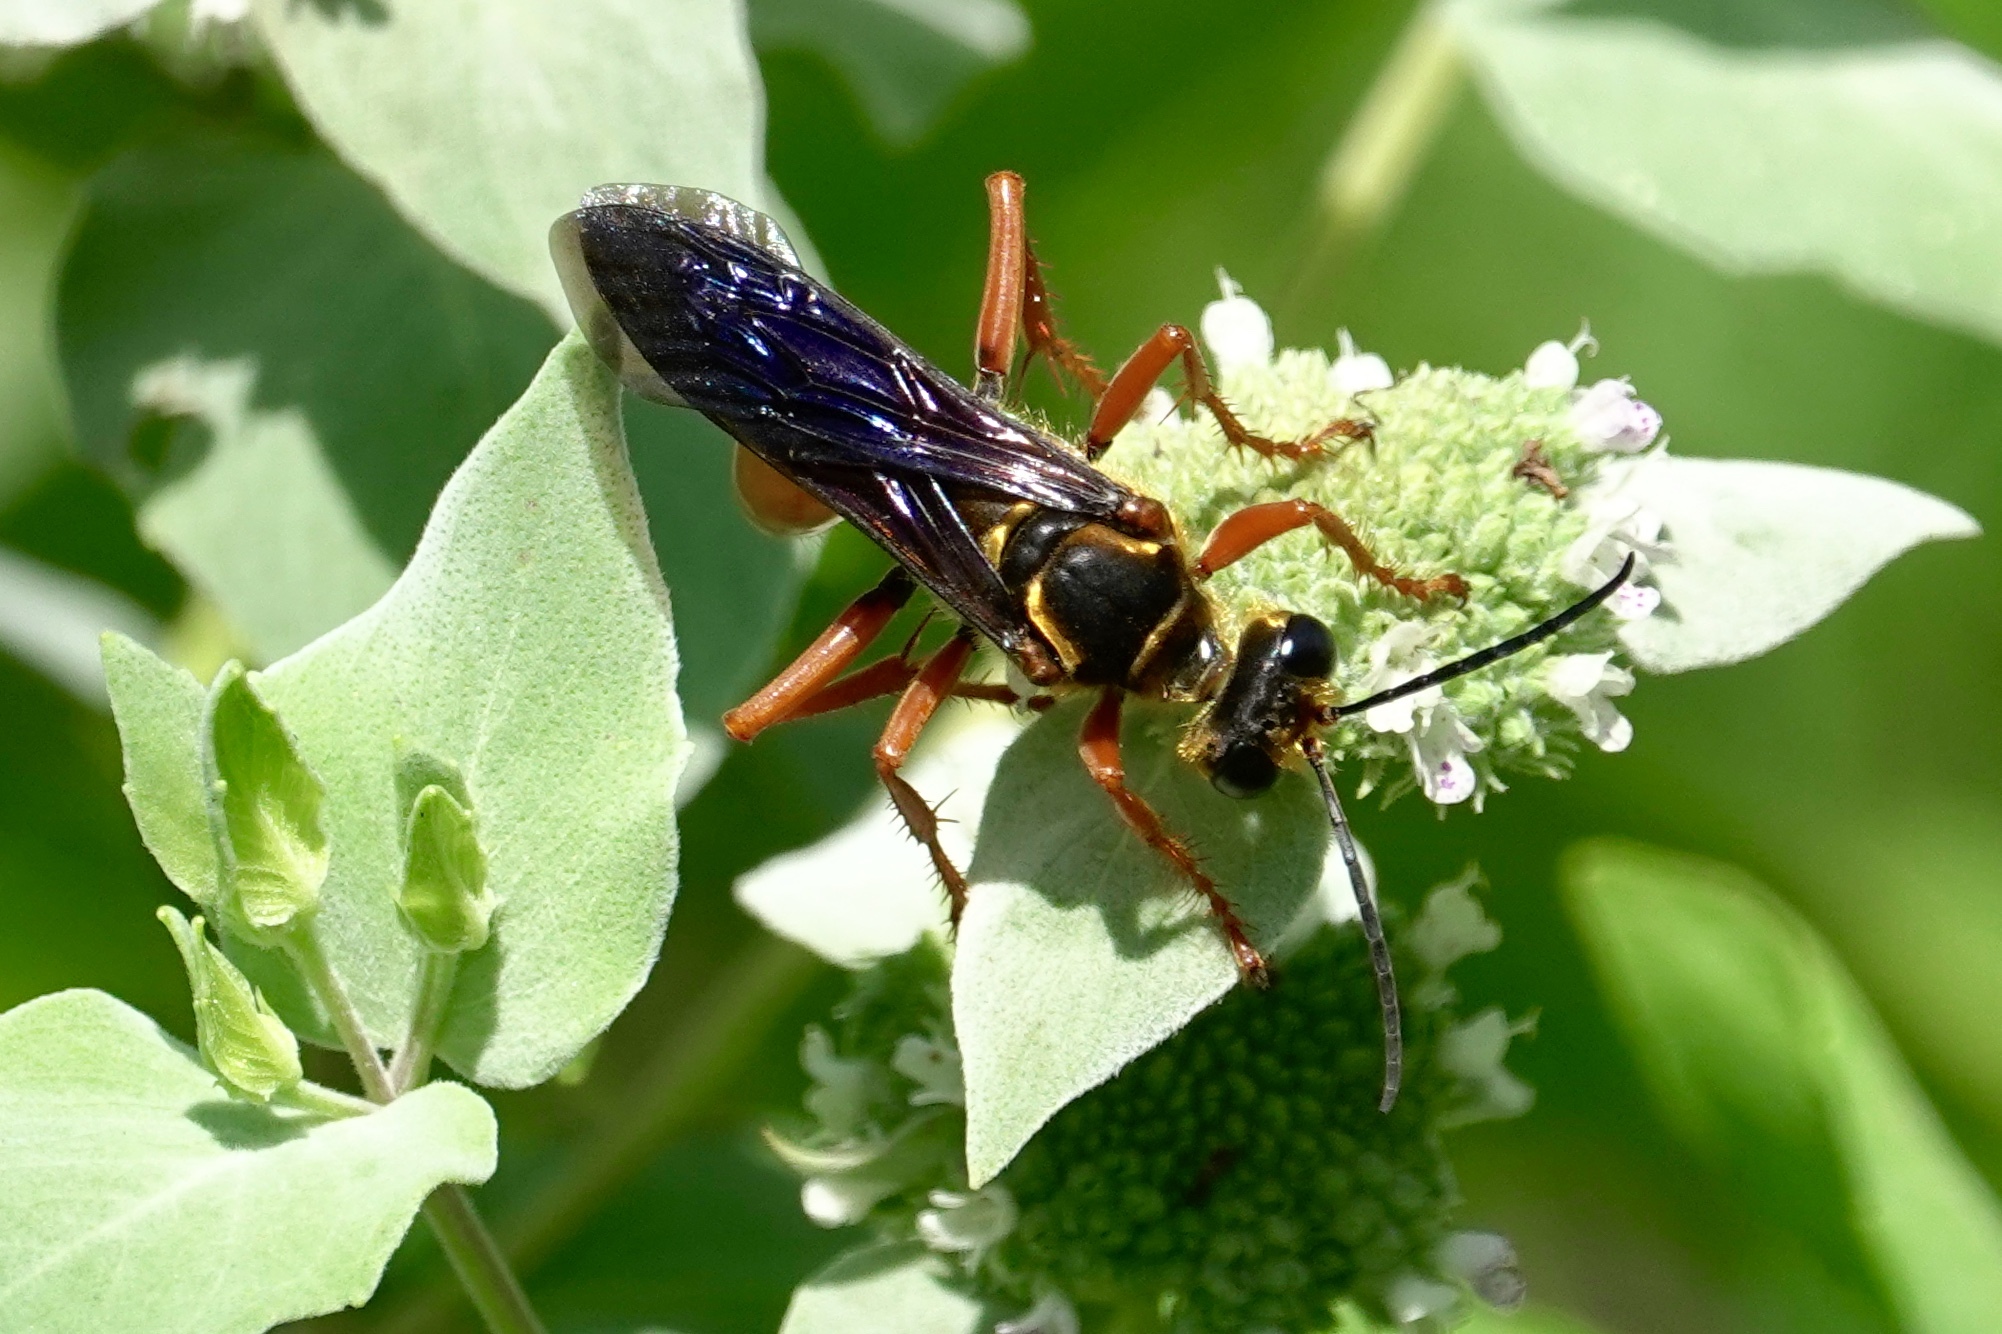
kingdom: Animalia
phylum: Arthropoda
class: Insecta
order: Hymenoptera
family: Sphecidae
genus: Sphex
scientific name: Sphex ichneumoneus
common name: Great golden digger wasp
